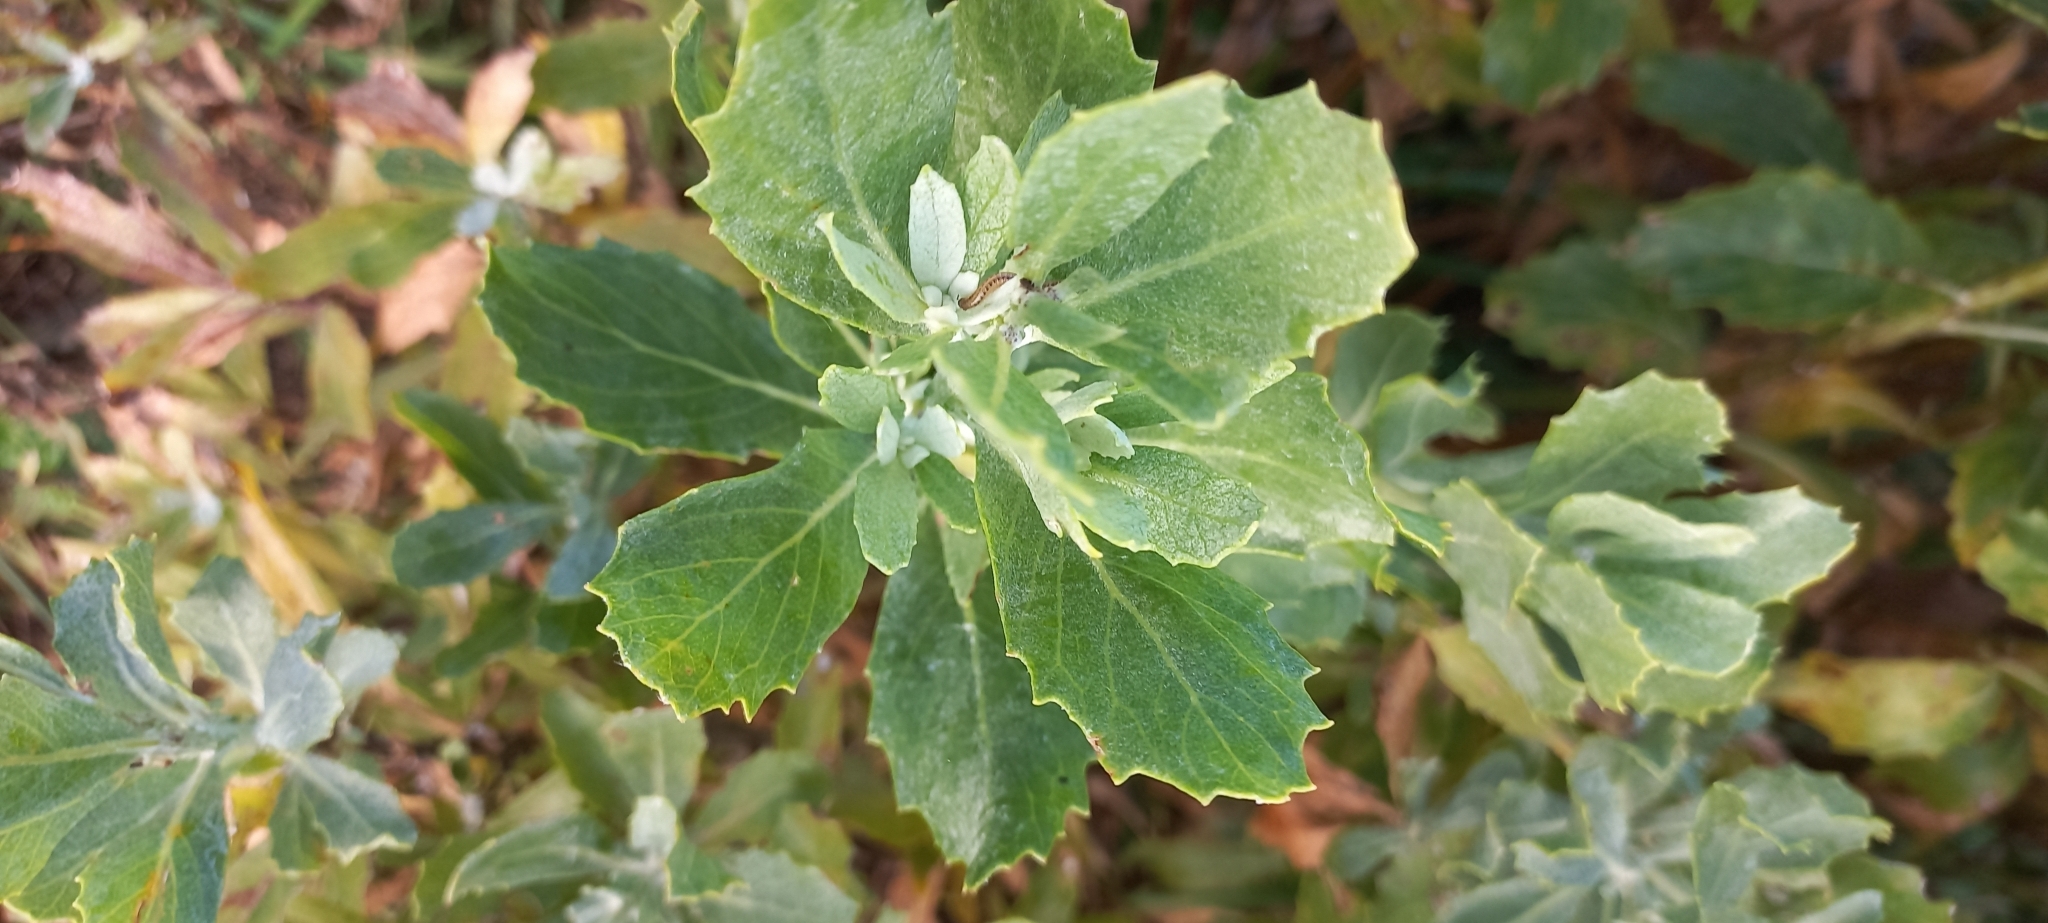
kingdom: Plantae
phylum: Tracheophyta
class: Magnoliopsida
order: Asterales
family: Asteraceae
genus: Senecio
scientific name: Senecio halimifolius
